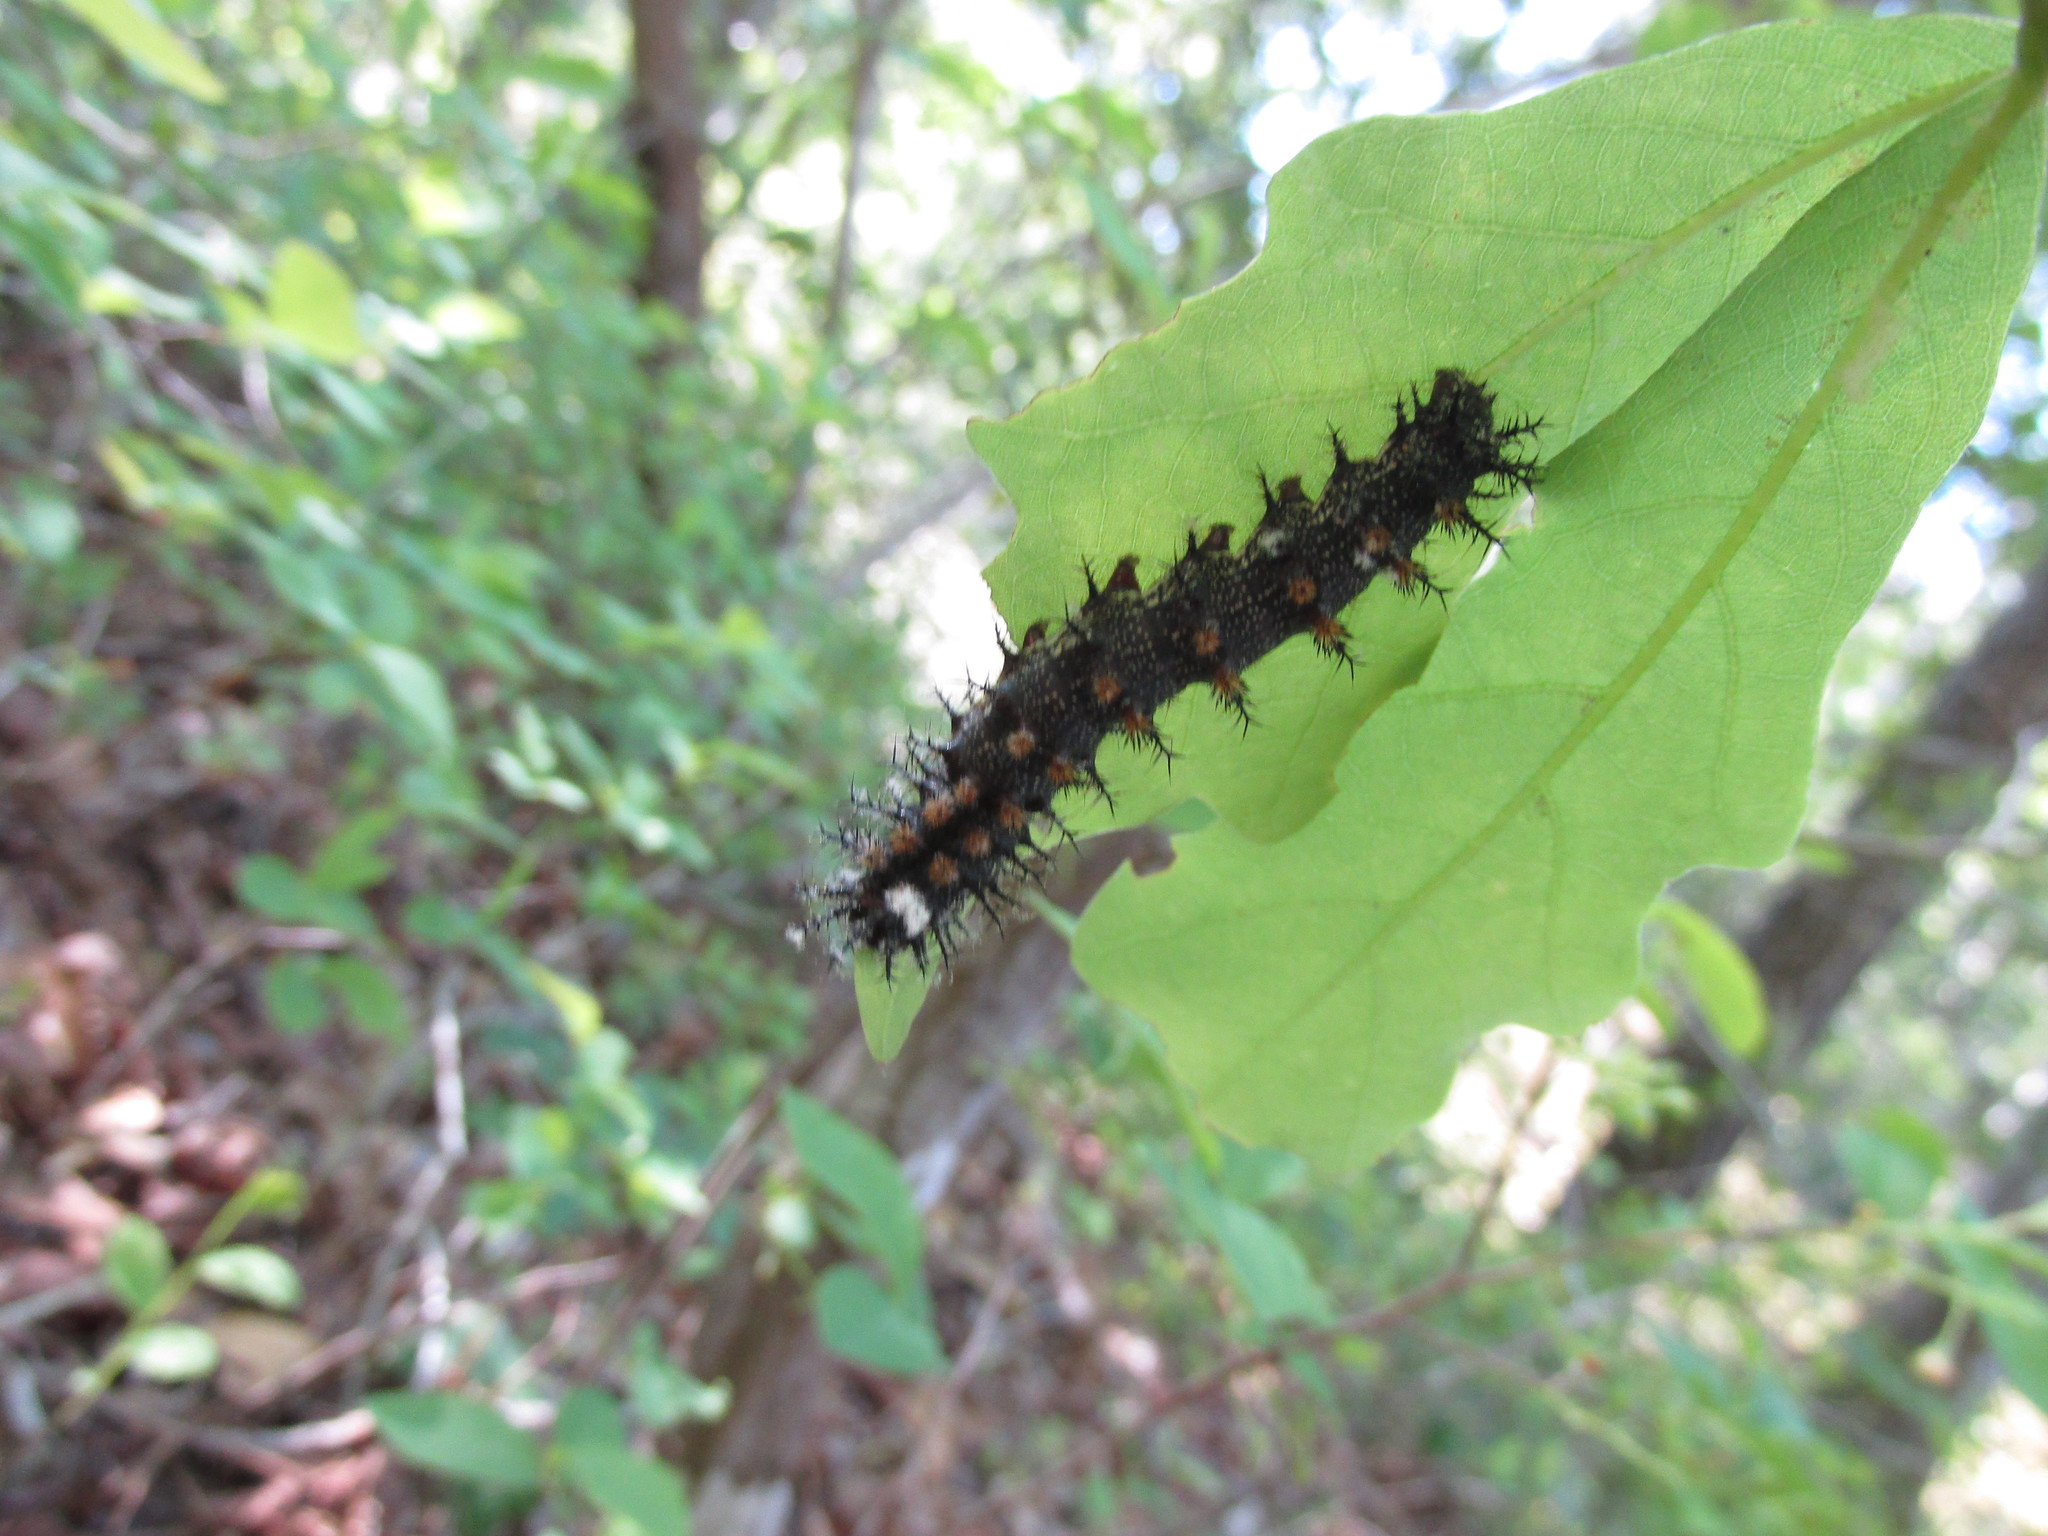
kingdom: Animalia
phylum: Arthropoda
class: Insecta
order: Lepidoptera
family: Saturniidae
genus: Hemileuca
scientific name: Hemileuca maia
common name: Eastern buckmoth
